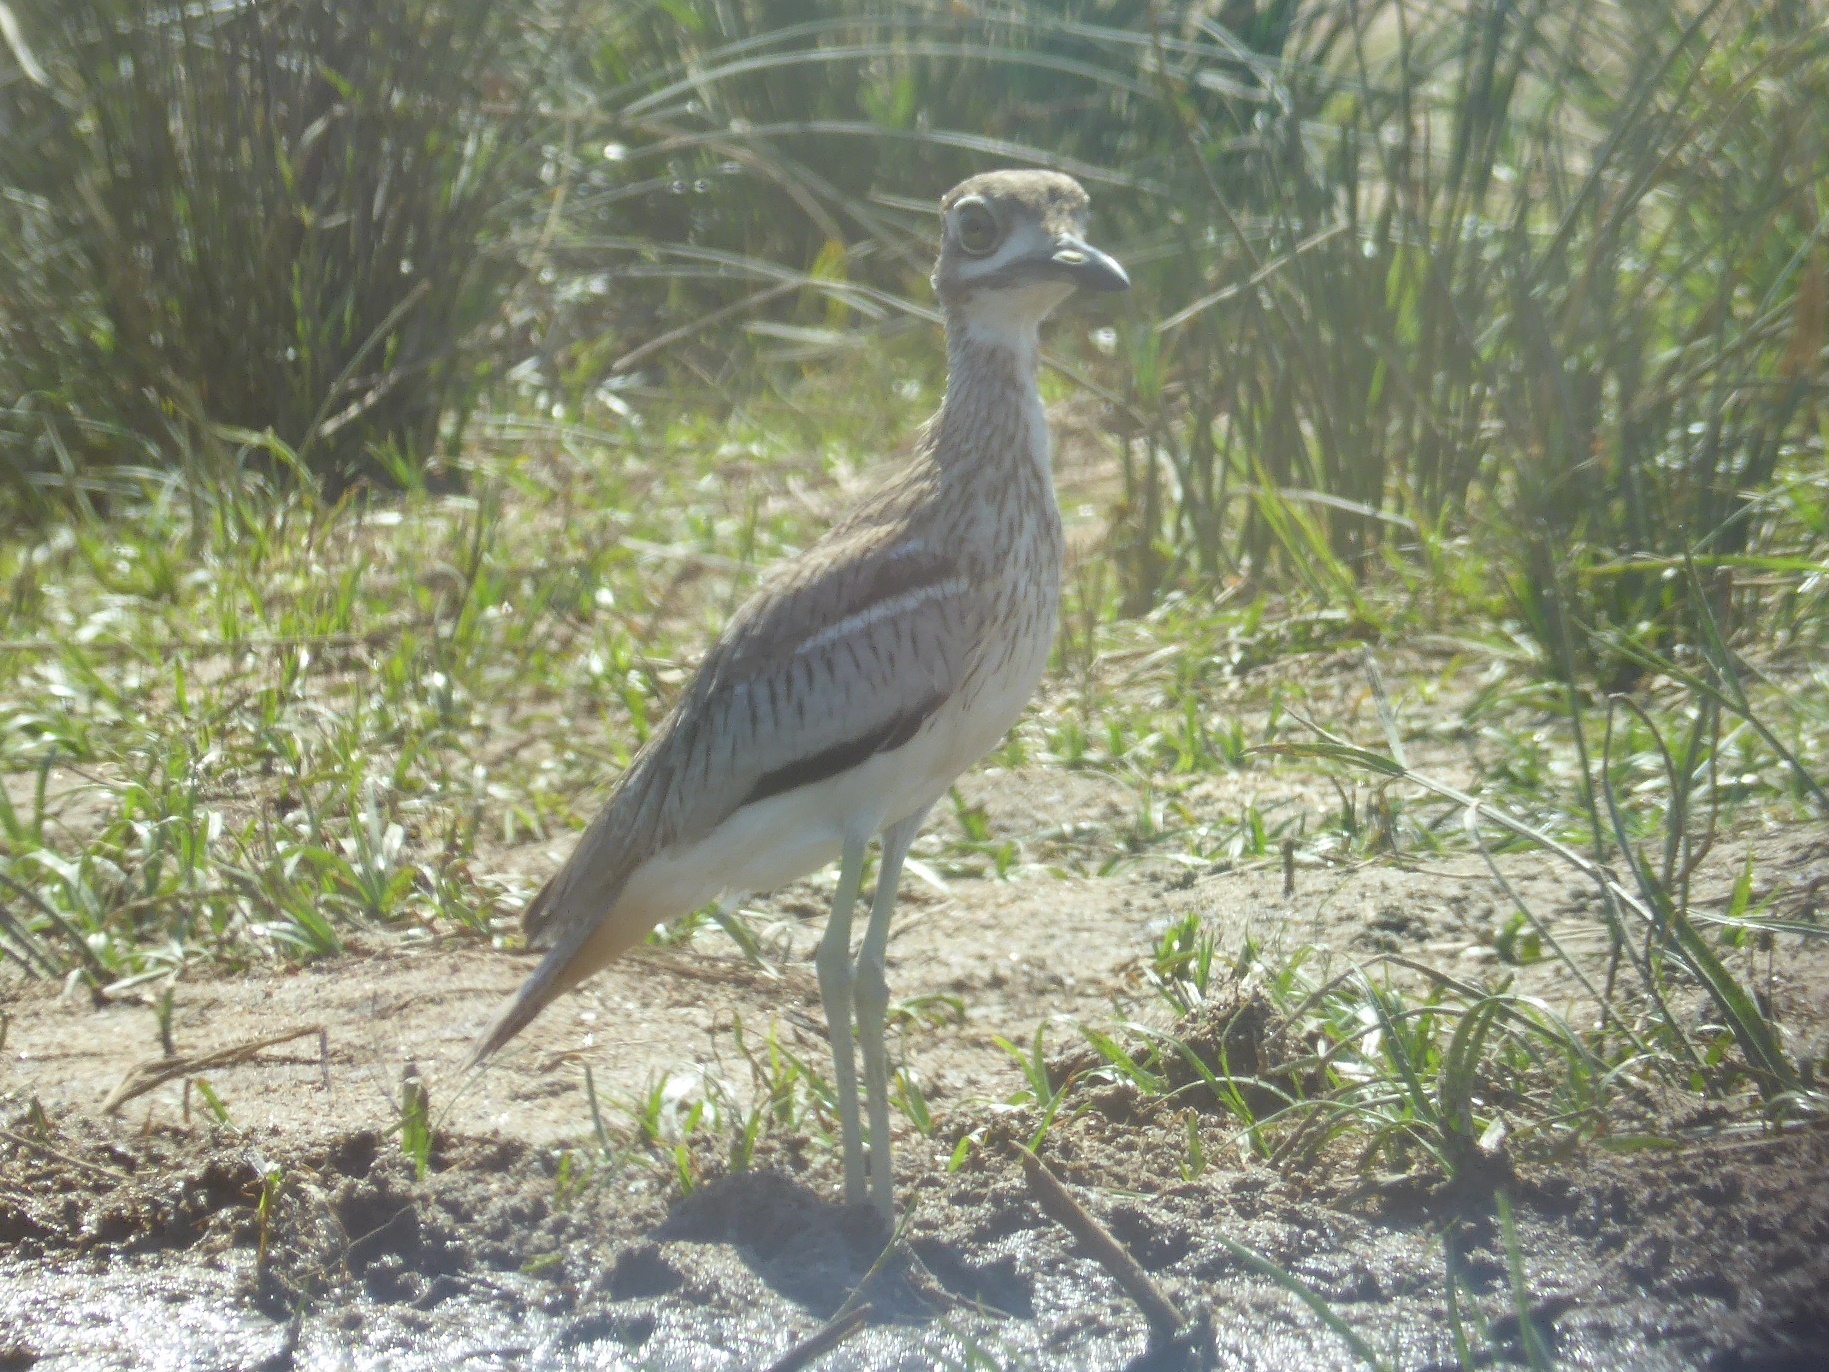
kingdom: Animalia
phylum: Chordata
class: Aves
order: Charadriiformes
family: Burhinidae
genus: Burhinus
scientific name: Burhinus vermiculatus
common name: Water thick-knee
